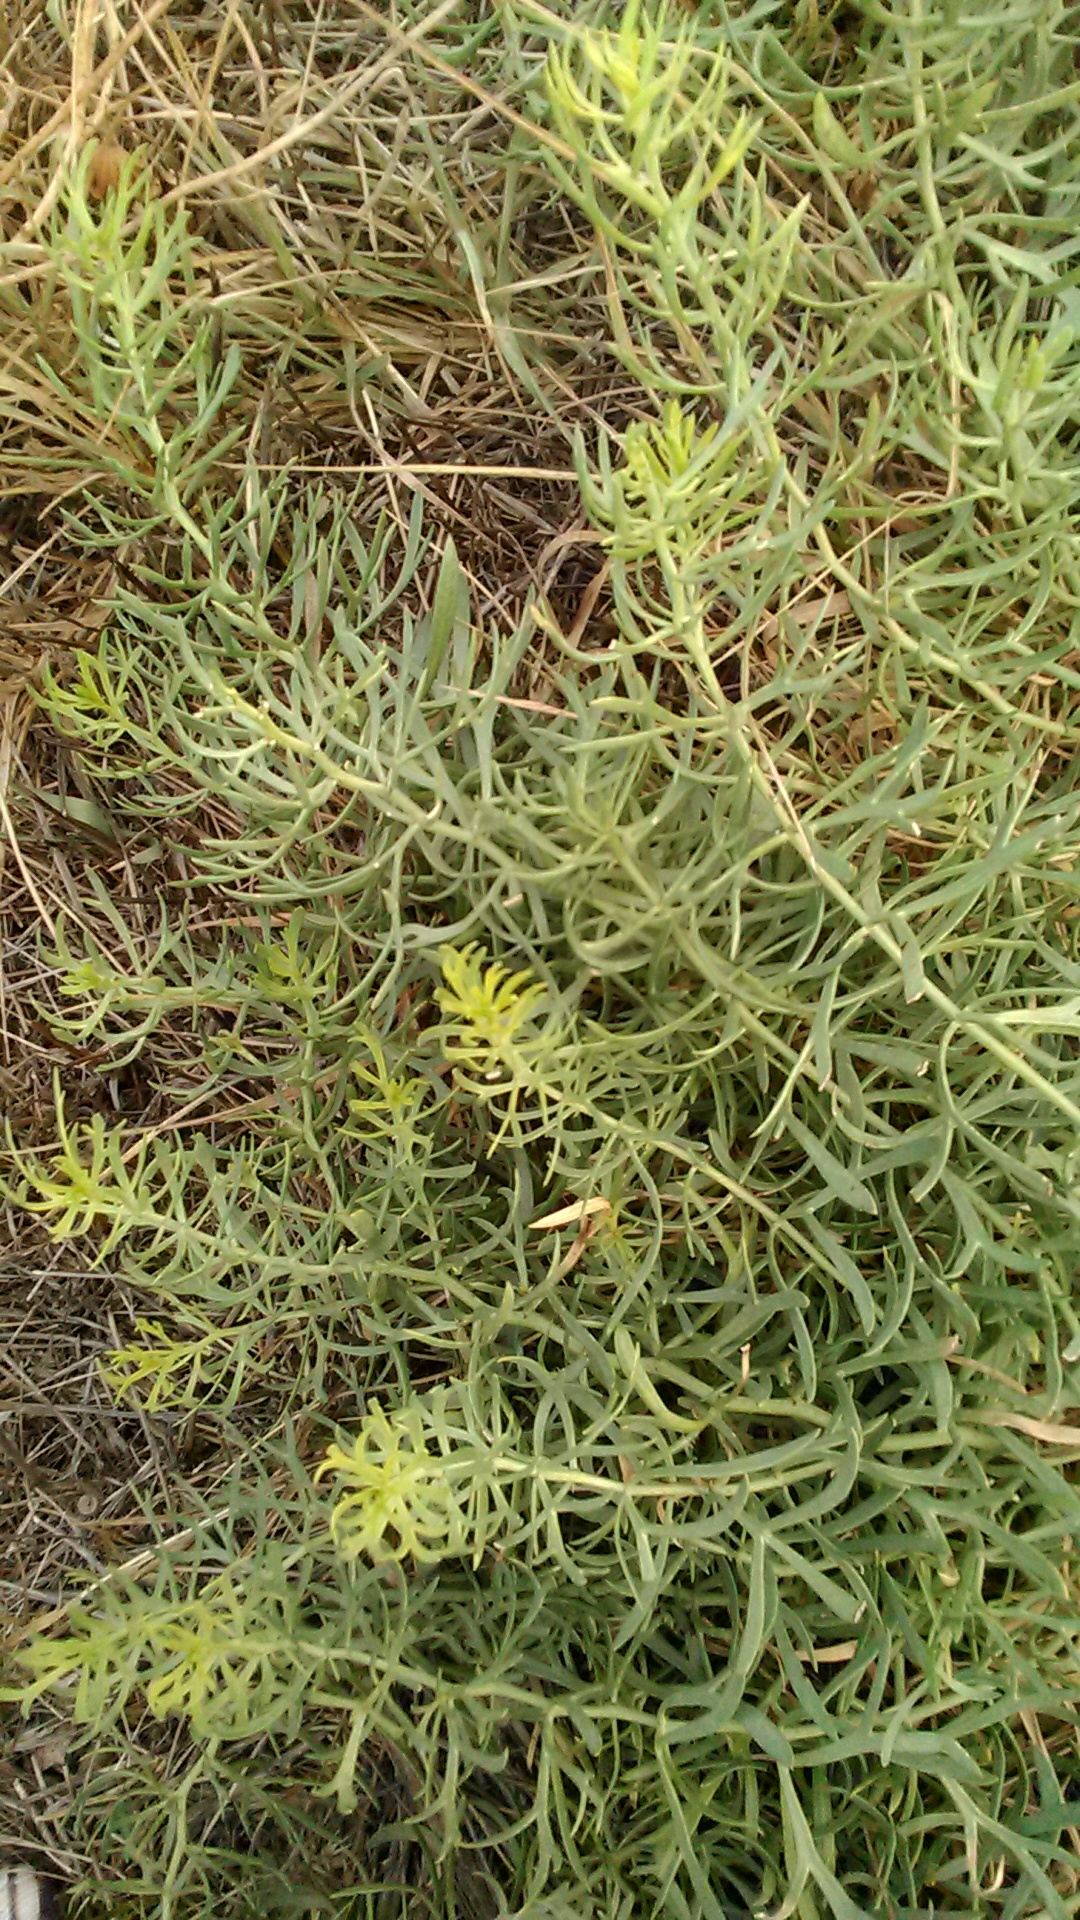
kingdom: Plantae
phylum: Tracheophyta
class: Magnoliopsida
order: Sapindales
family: Tetradiclidaceae
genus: Peganum
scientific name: Peganum harmala
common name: Harmal peganum
